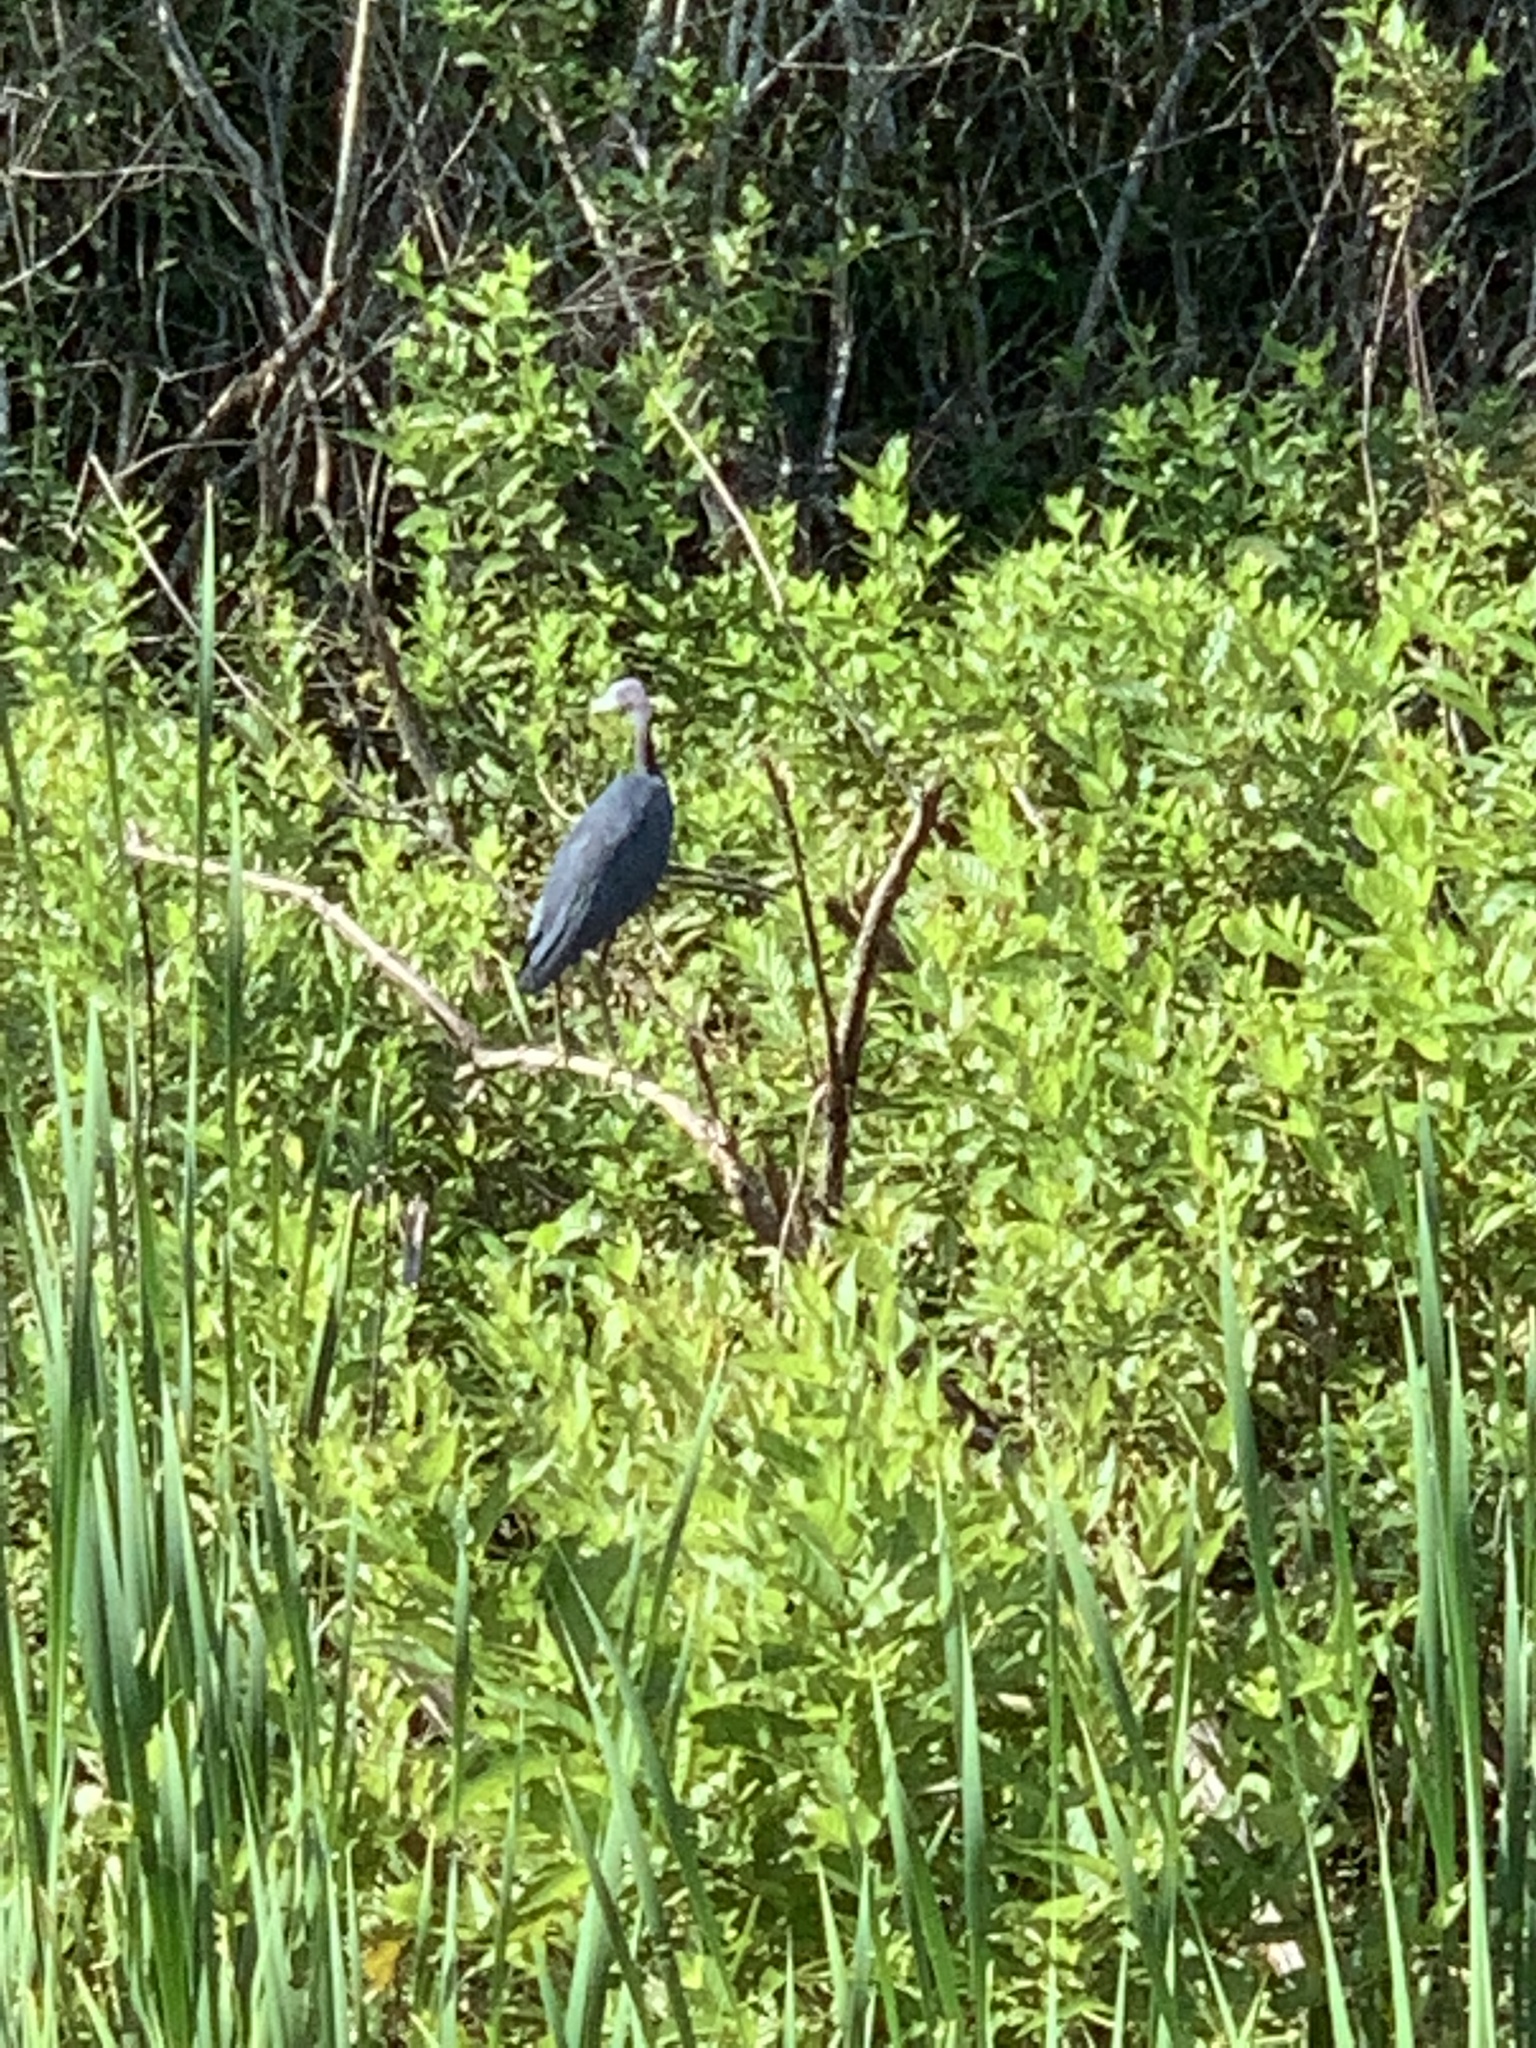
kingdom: Animalia
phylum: Chordata
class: Aves
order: Pelecaniformes
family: Ardeidae
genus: Egretta
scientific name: Egretta caerulea
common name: Little blue heron
